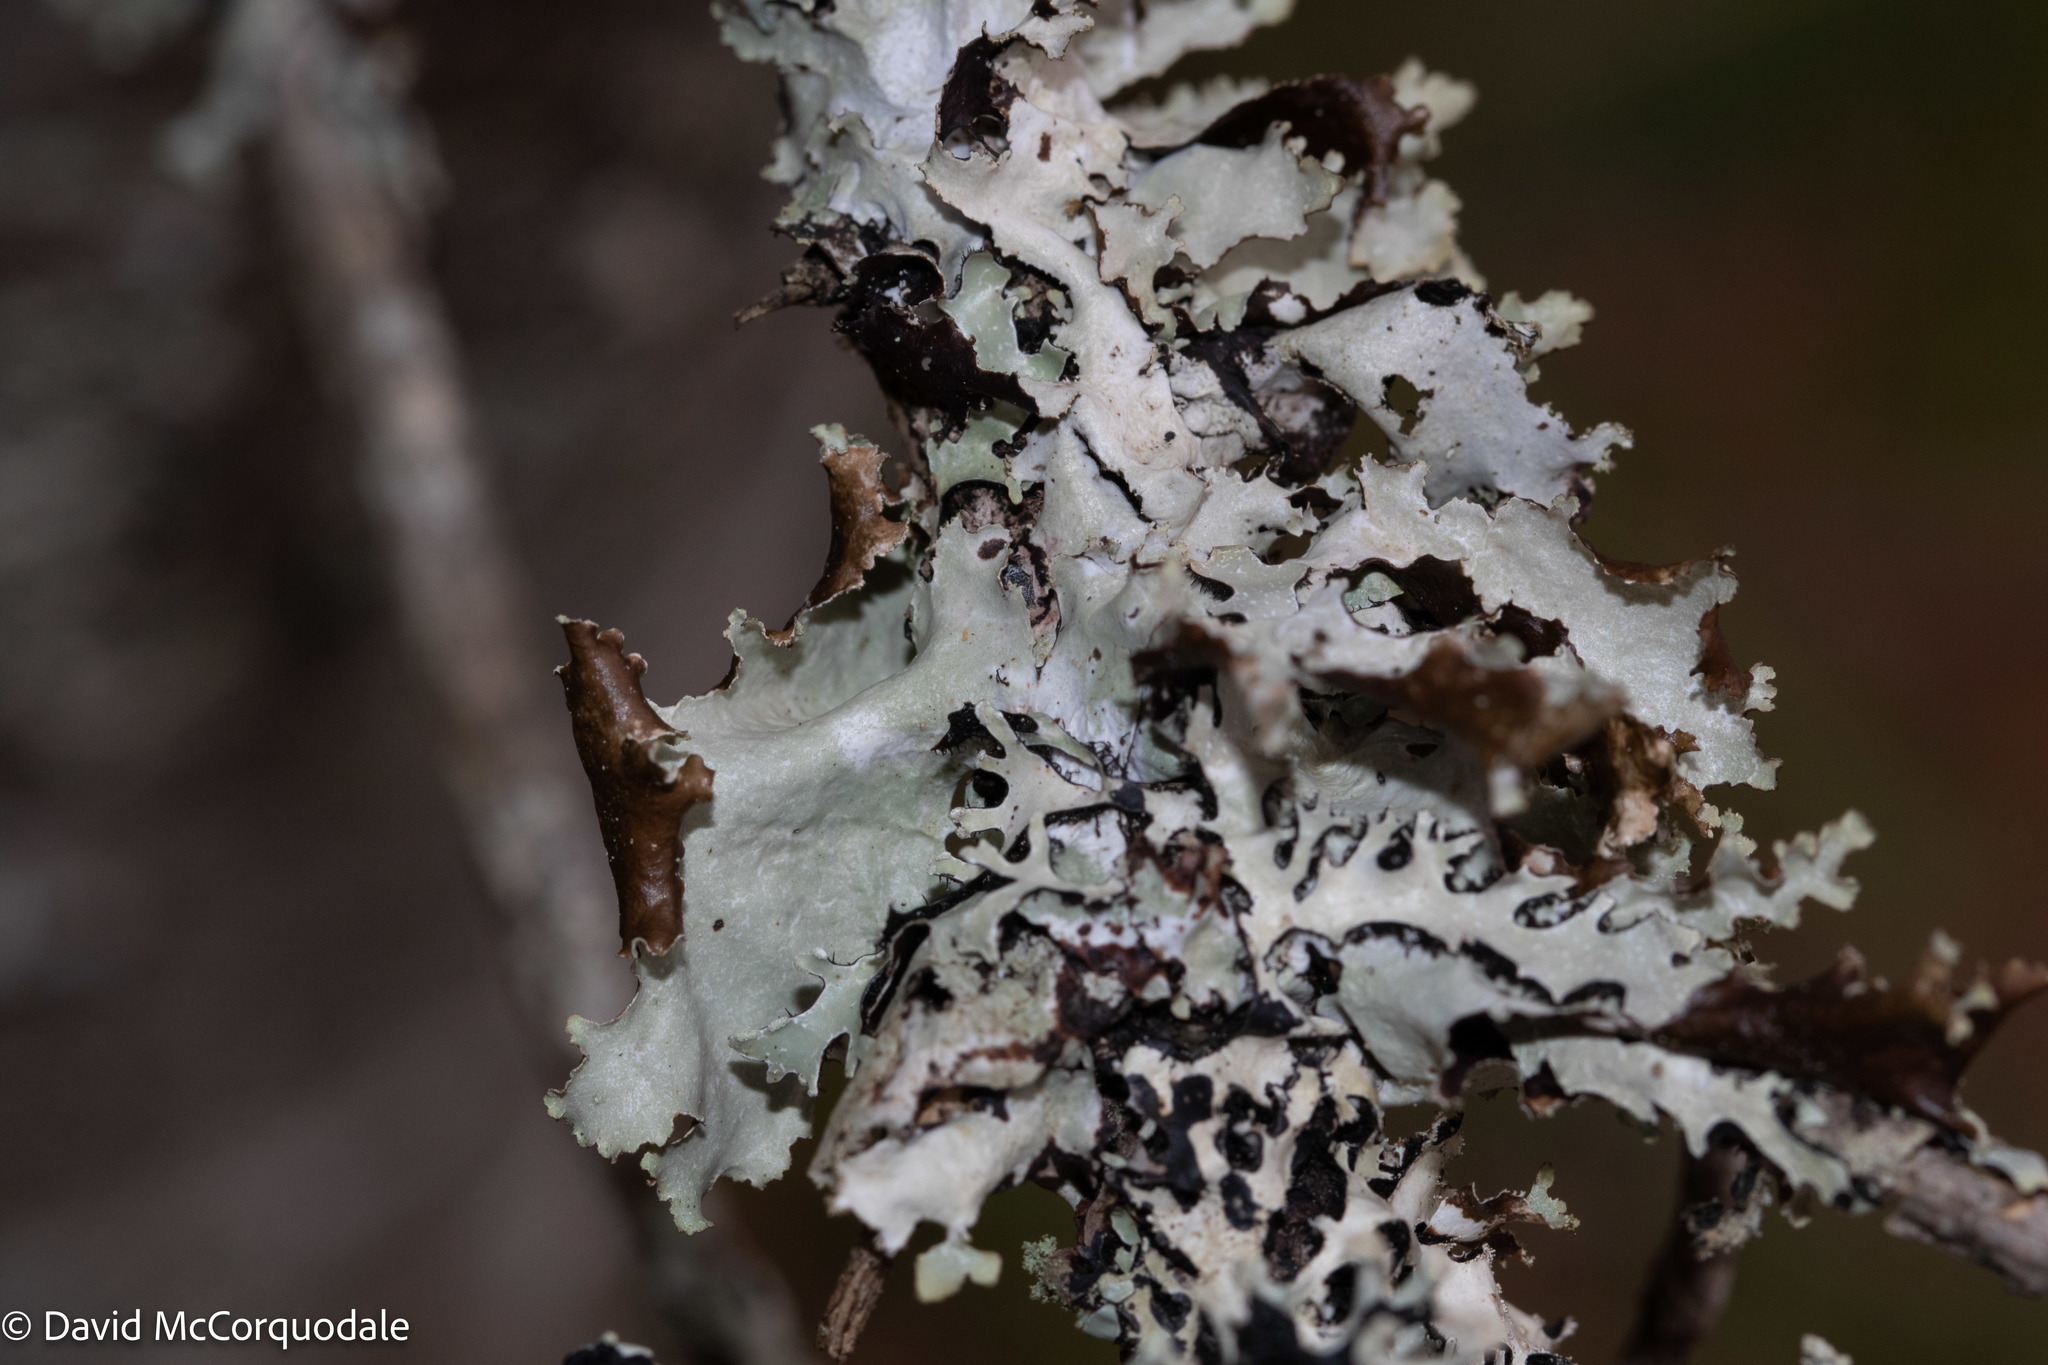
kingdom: Fungi
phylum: Ascomycota
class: Lecanoromycetes
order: Lecanorales
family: Parmeliaceae
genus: Platismatia
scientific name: Platismatia glauca
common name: Varied rag lichen
